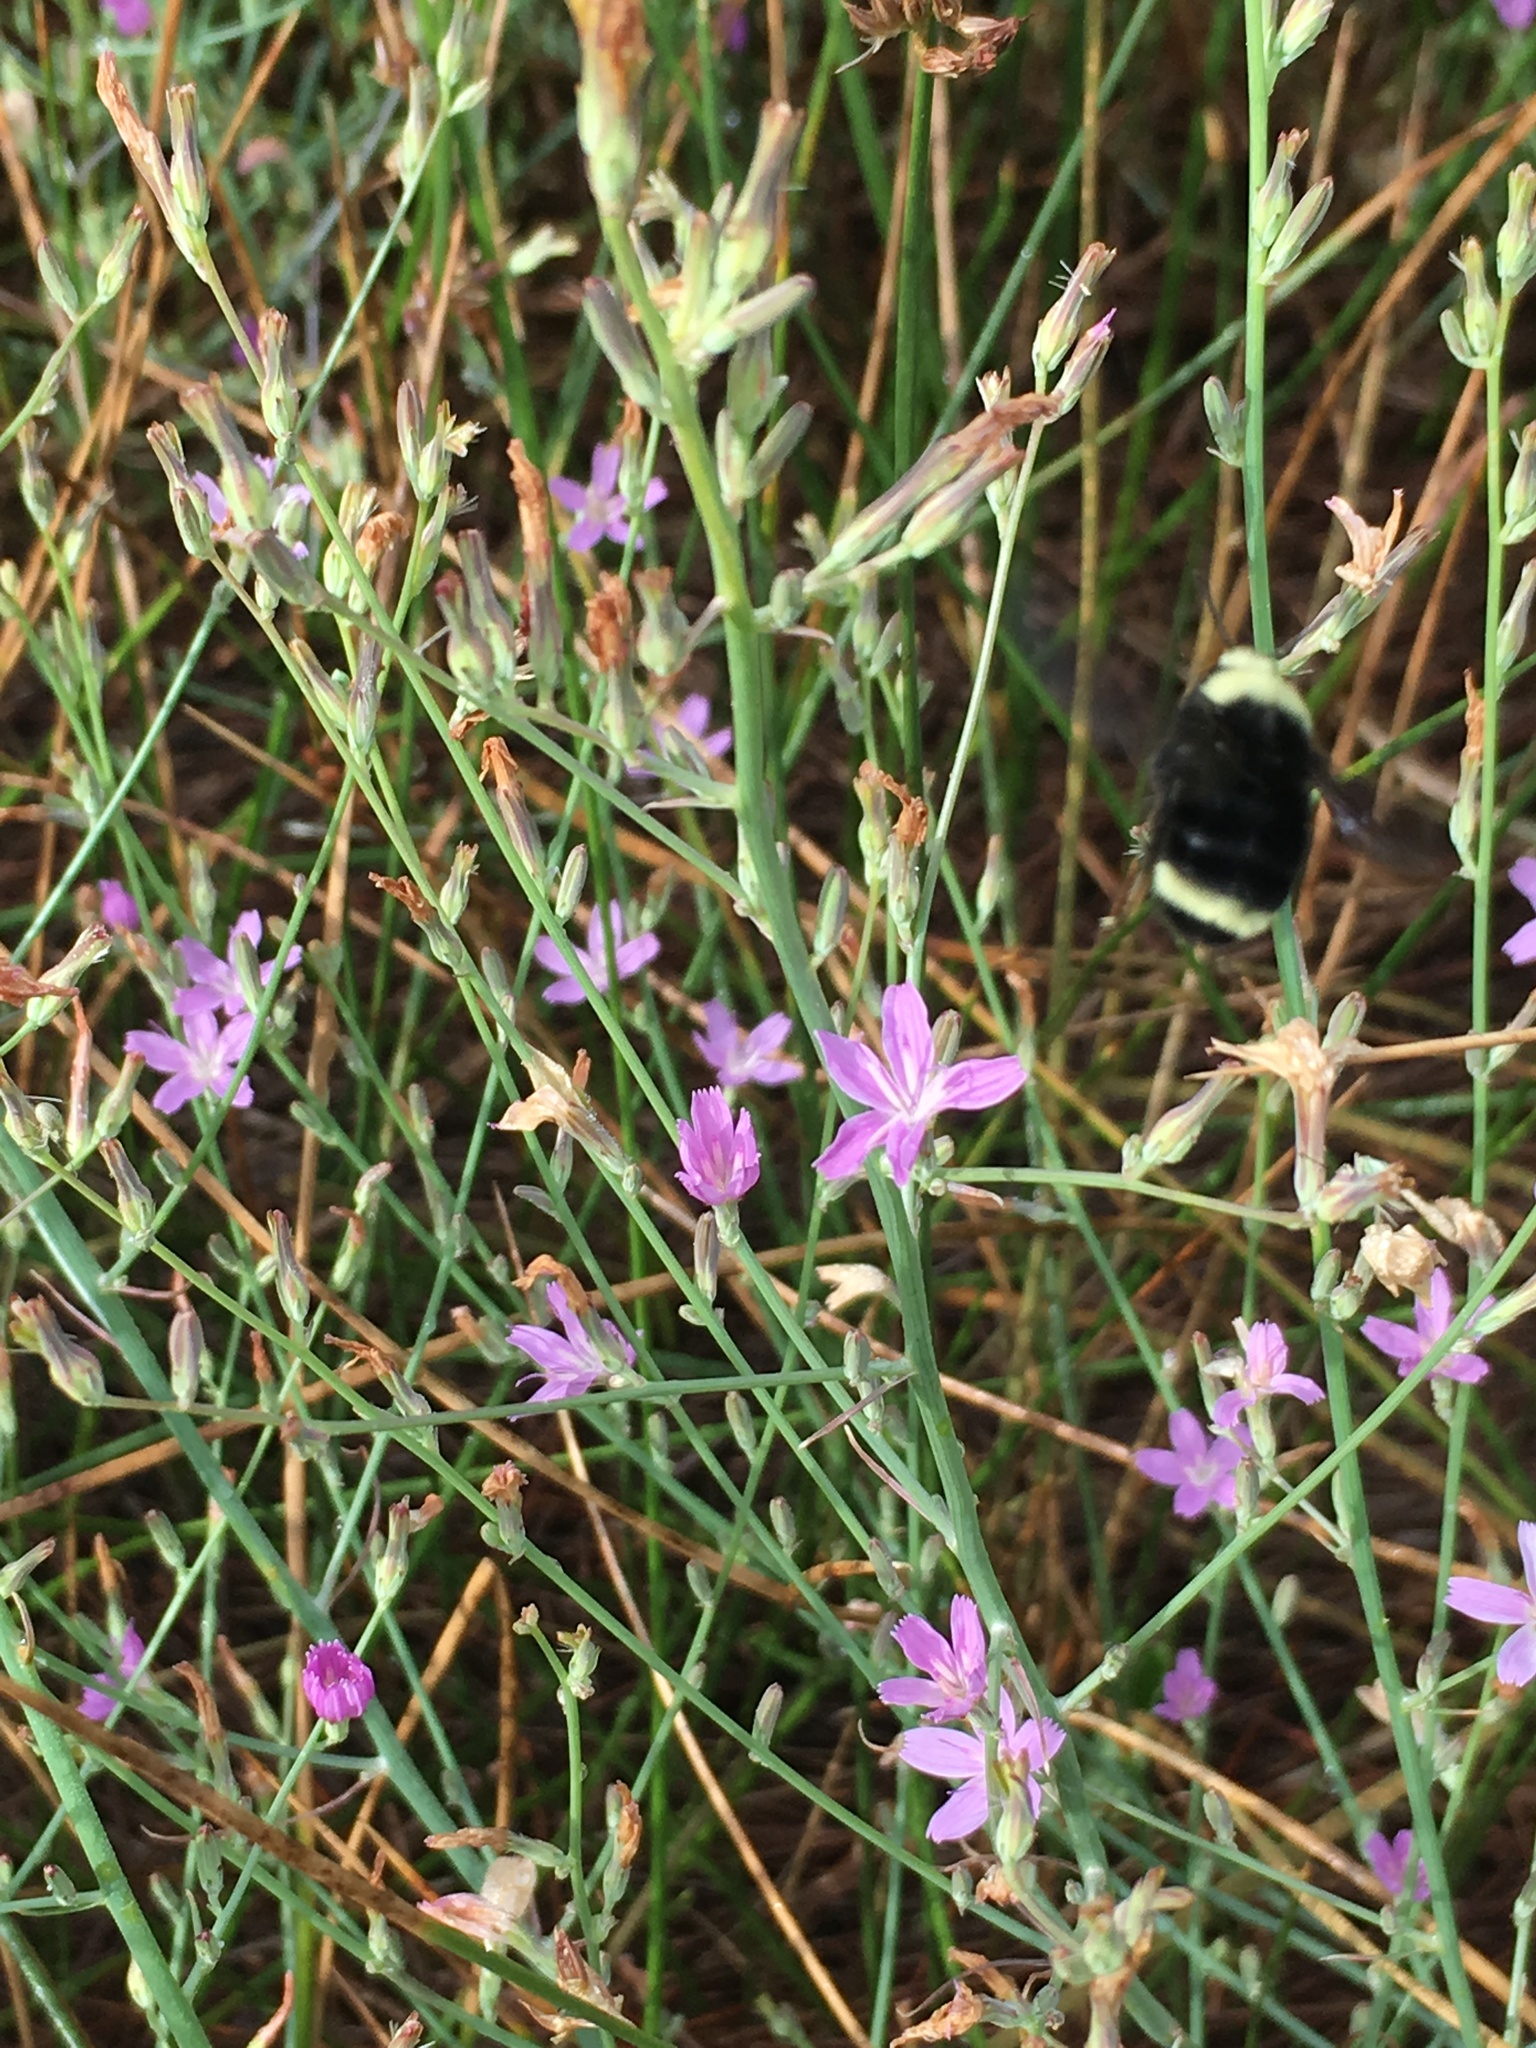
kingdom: Animalia
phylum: Arthropoda
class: Insecta
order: Hymenoptera
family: Apidae
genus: Bombus
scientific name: Bombus vosnesenskii
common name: Vosnesensky bumble bee
